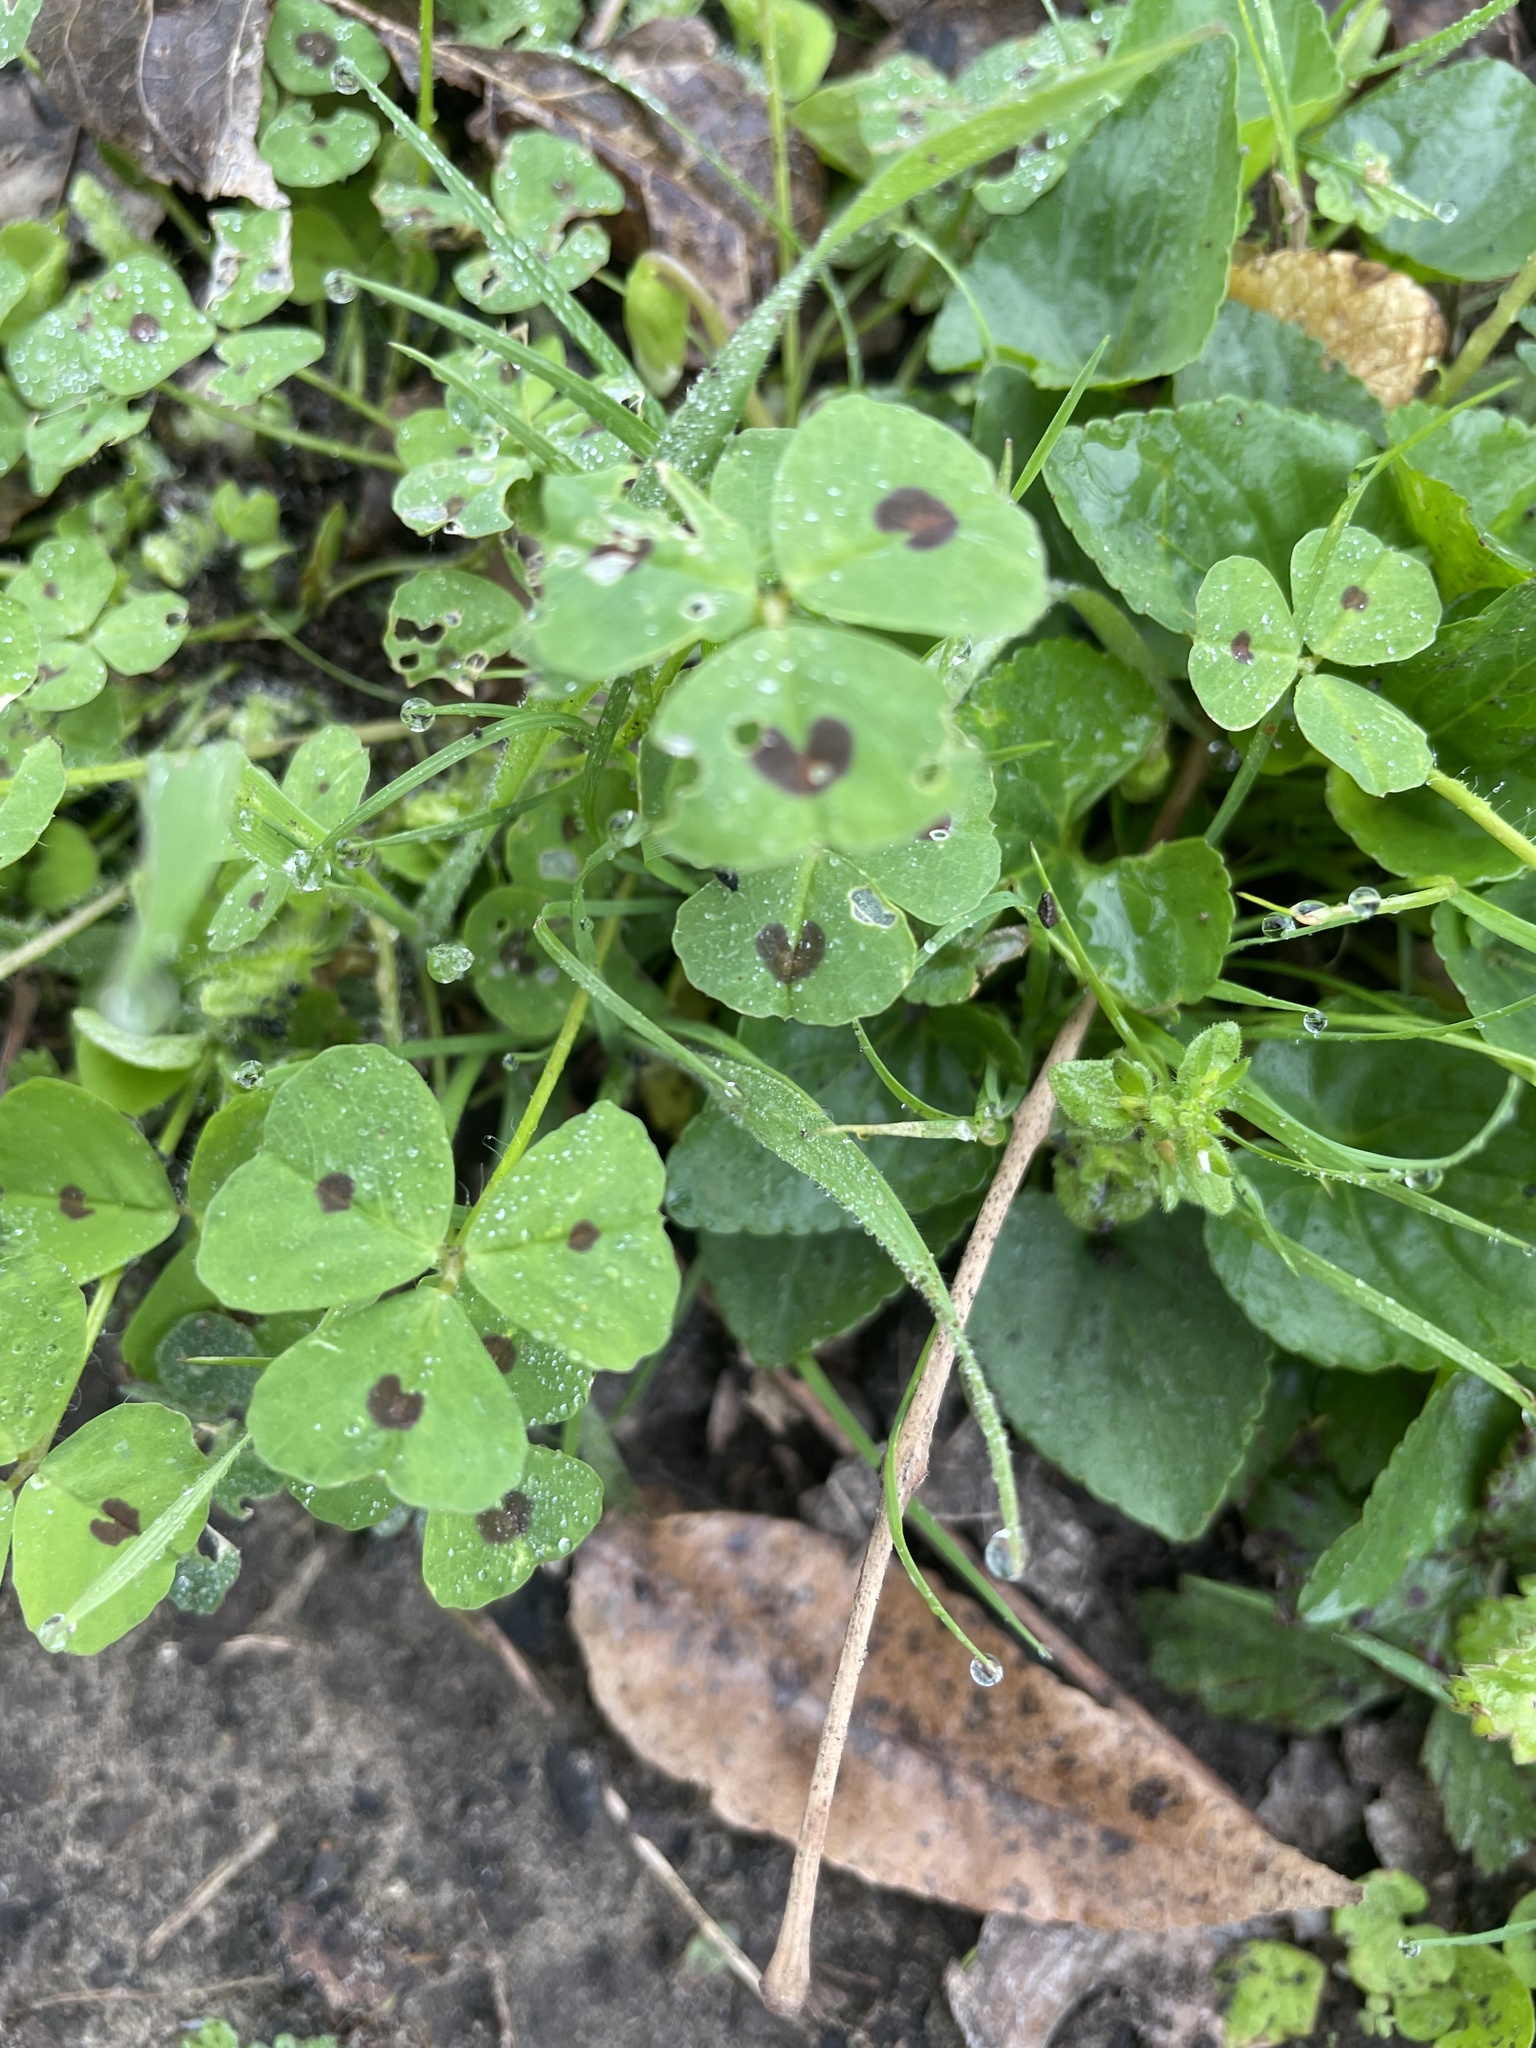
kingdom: Plantae
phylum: Tracheophyta
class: Magnoliopsida
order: Fabales
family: Fabaceae
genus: Medicago
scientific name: Medicago arabica
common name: Spotted medick
